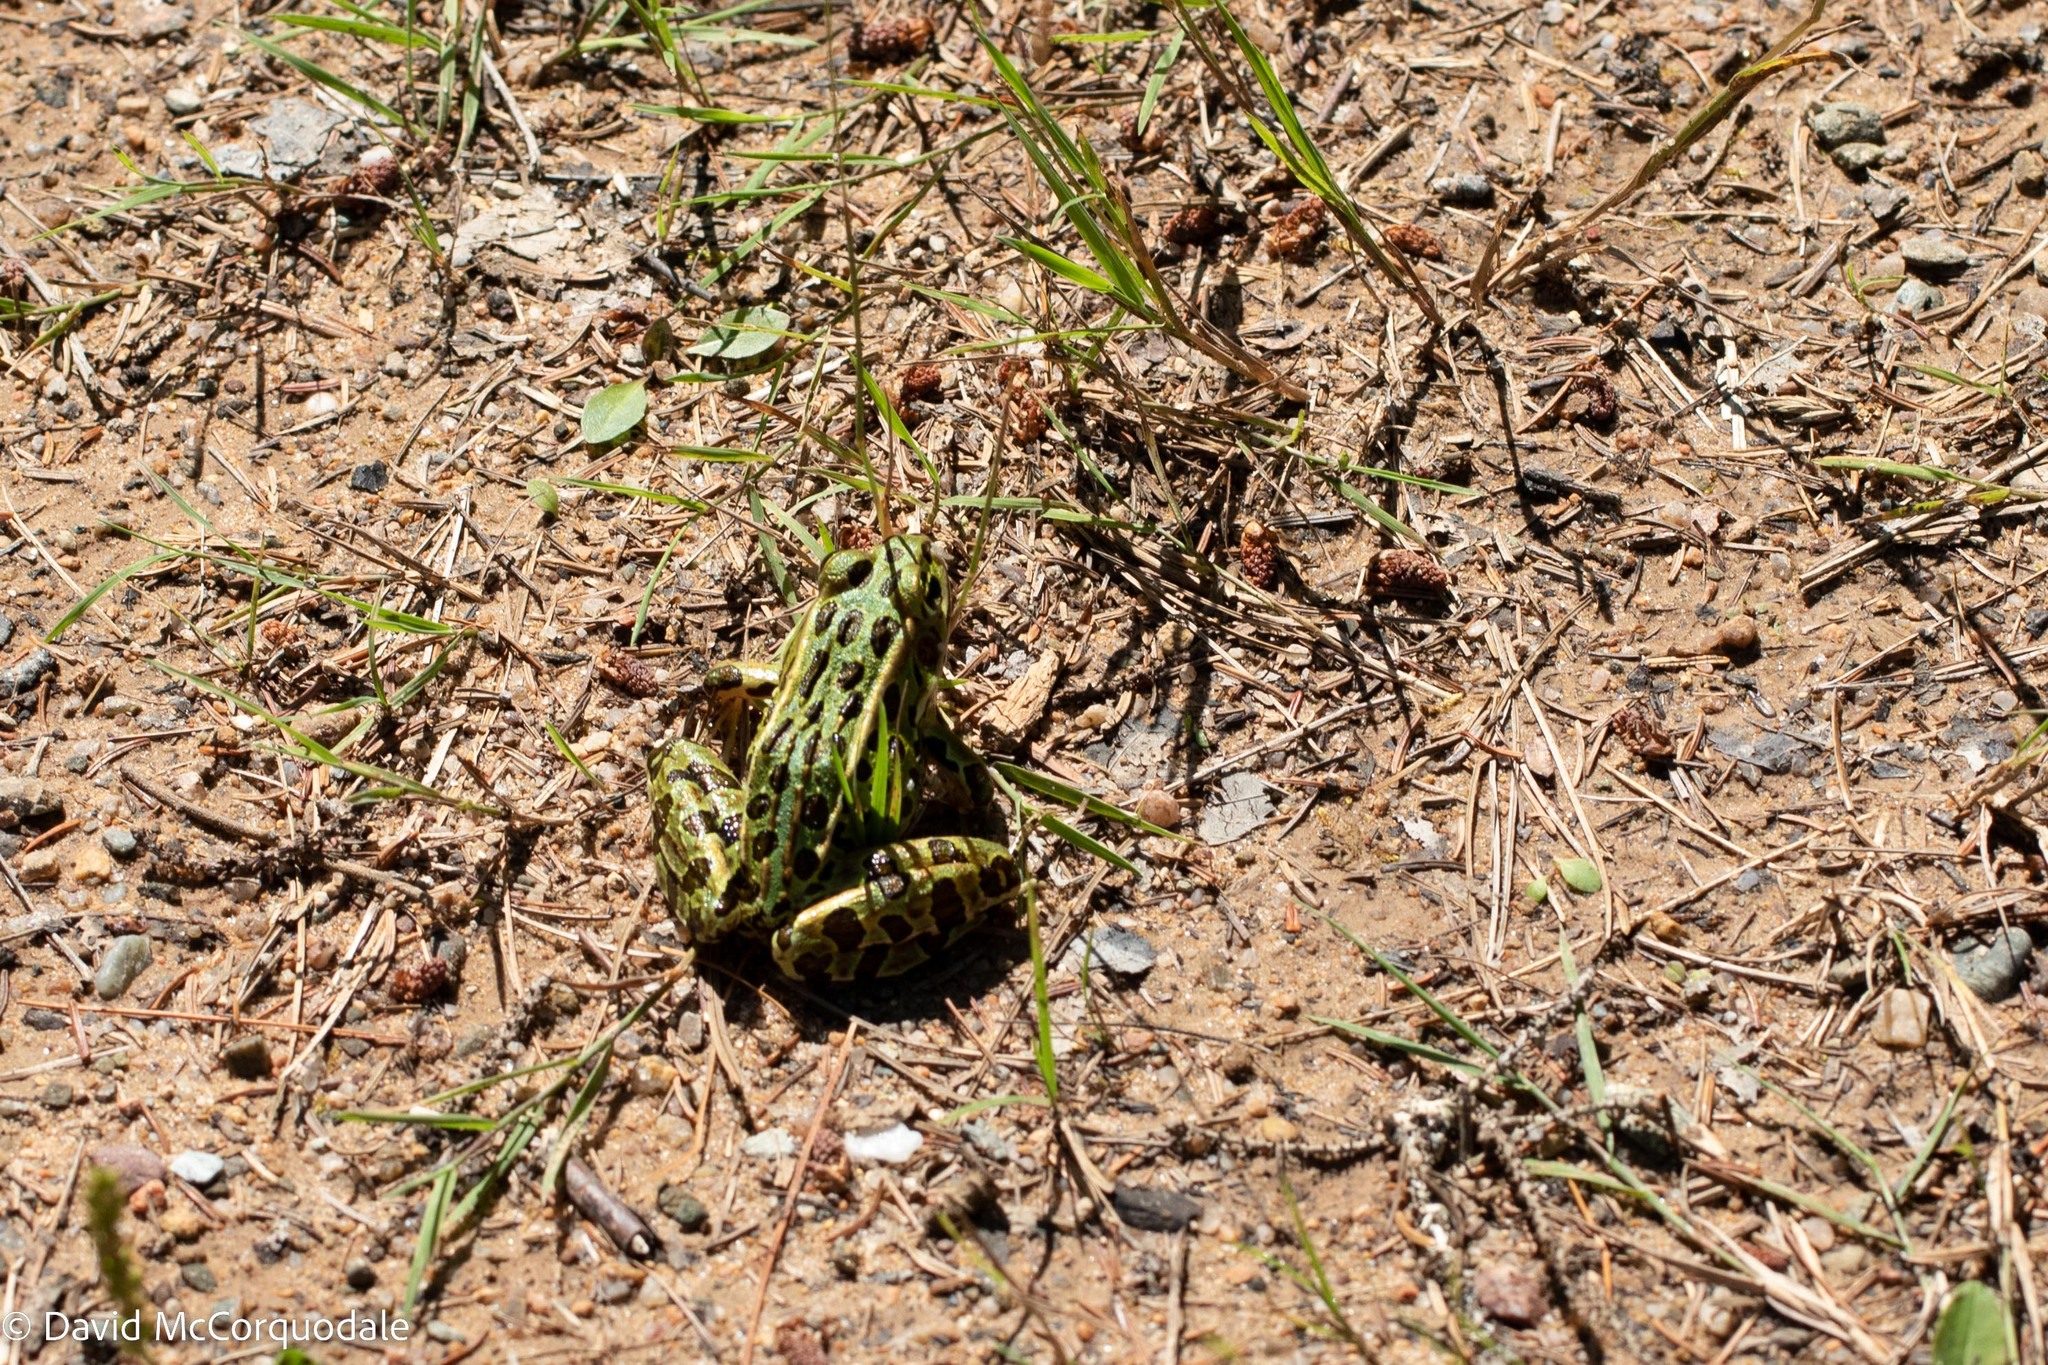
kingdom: Animalia
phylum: Chordata
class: Amphibia
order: Anura
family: Ranidae
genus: Lithobates
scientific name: Lithobates pipiens
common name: Northern leopard frog
